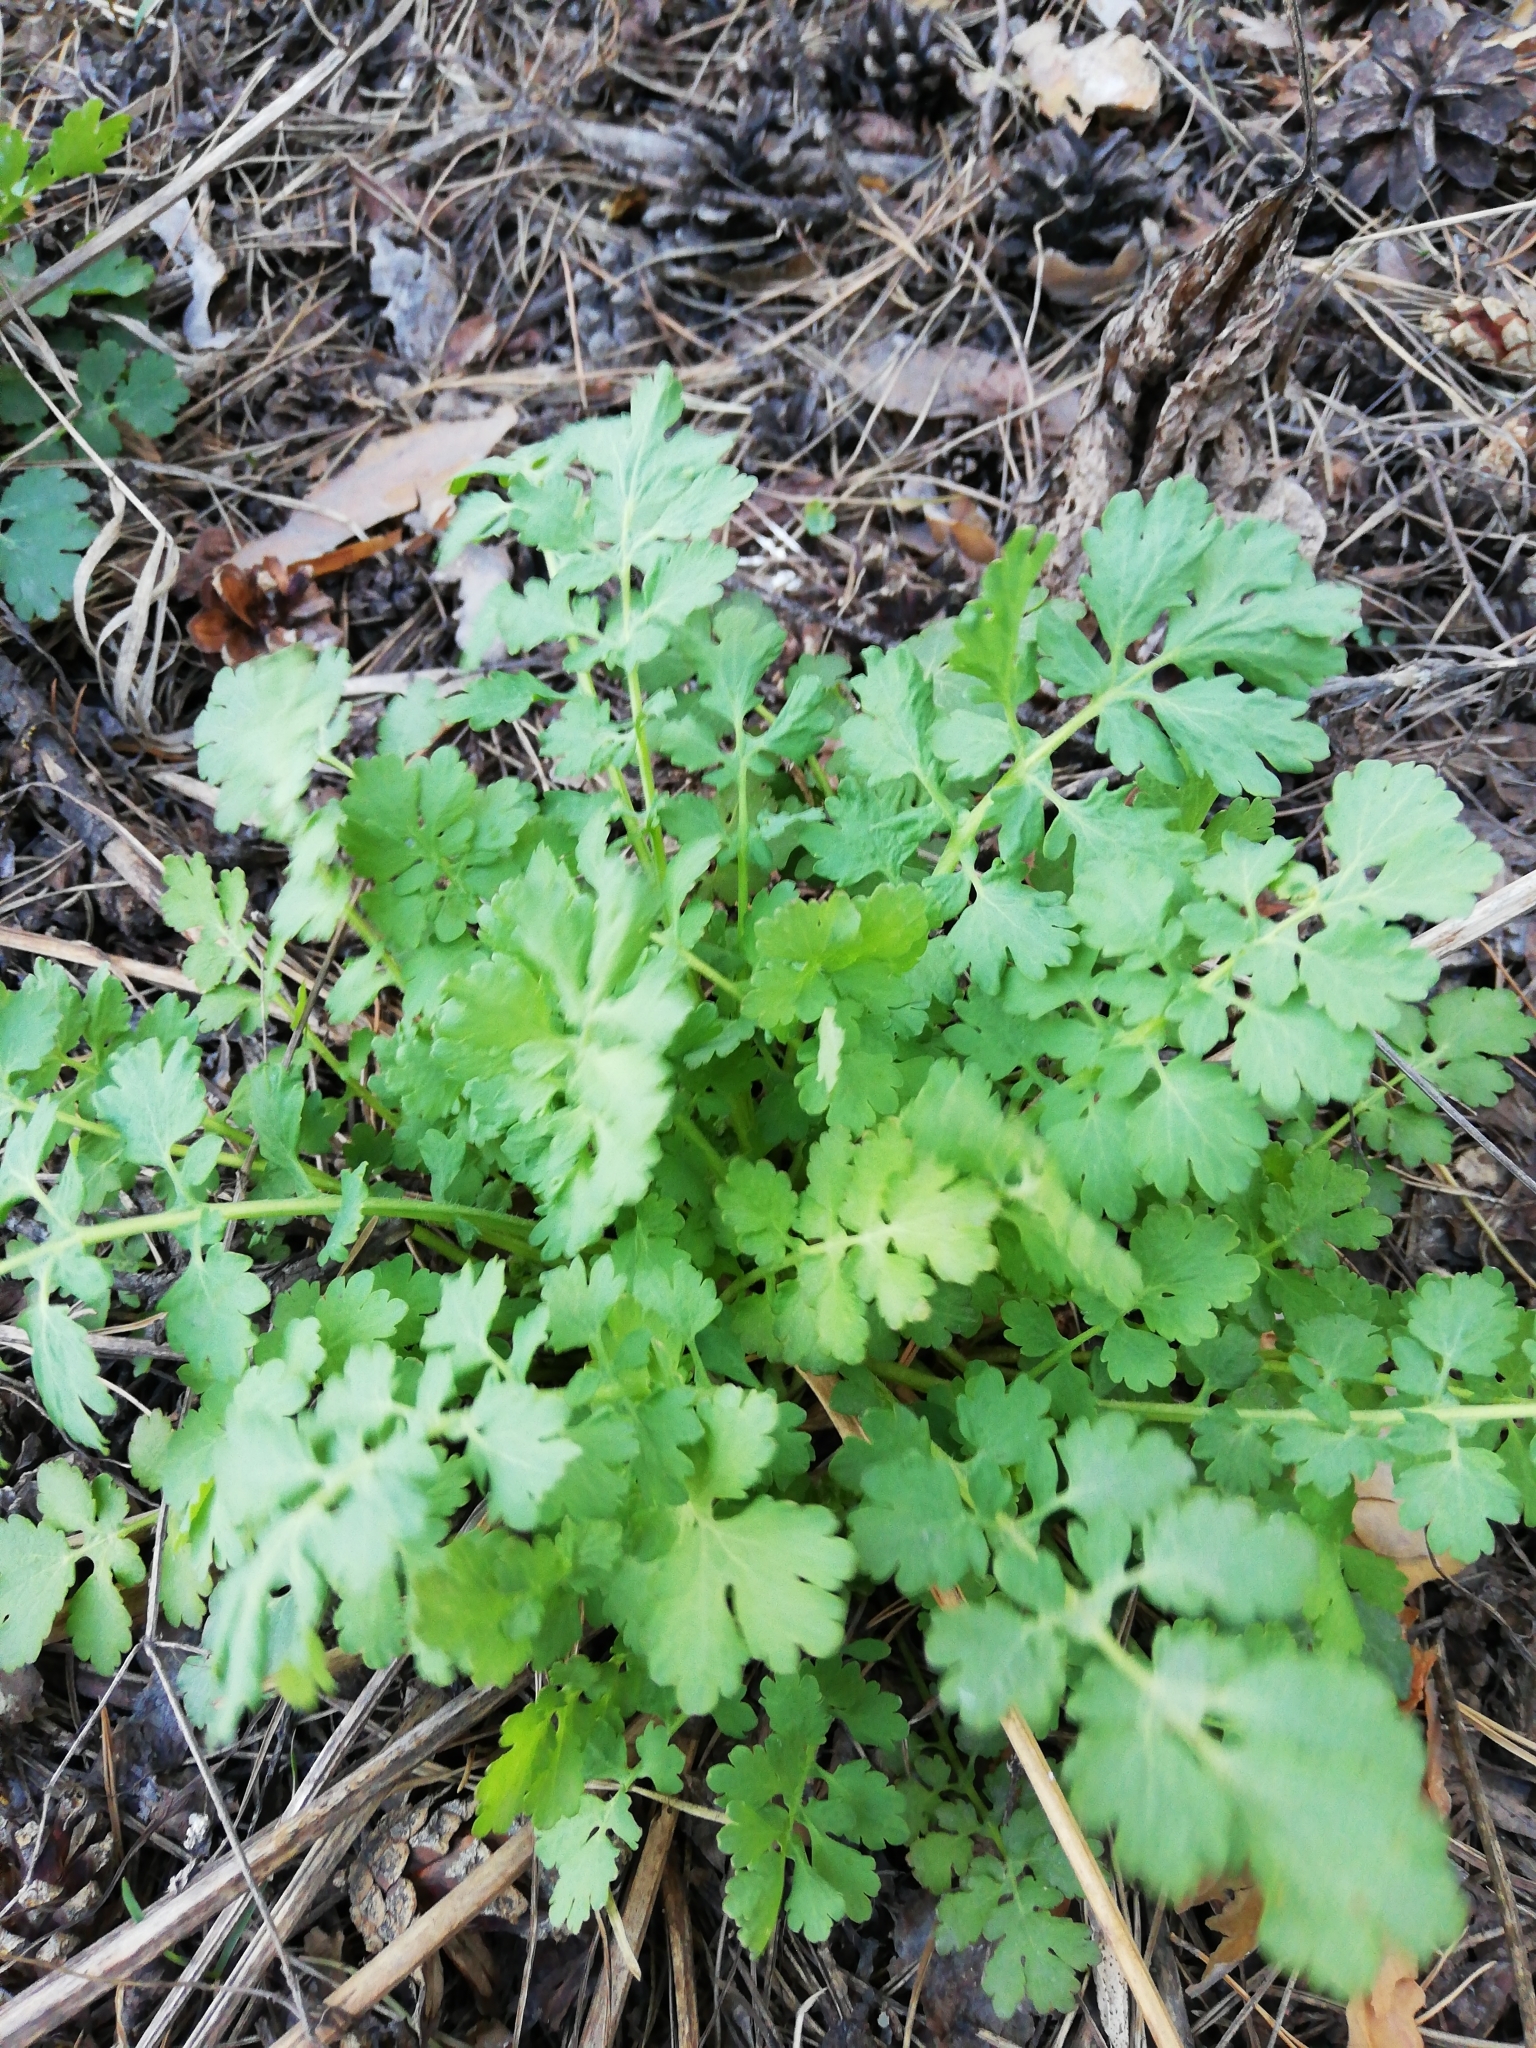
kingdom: Plantae
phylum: Tracheophyta
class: Magnoliopsida
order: Ranunculales
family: Papaveraceae
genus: Chelidonium
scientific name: Chelidonium majus
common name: Greater celandine
